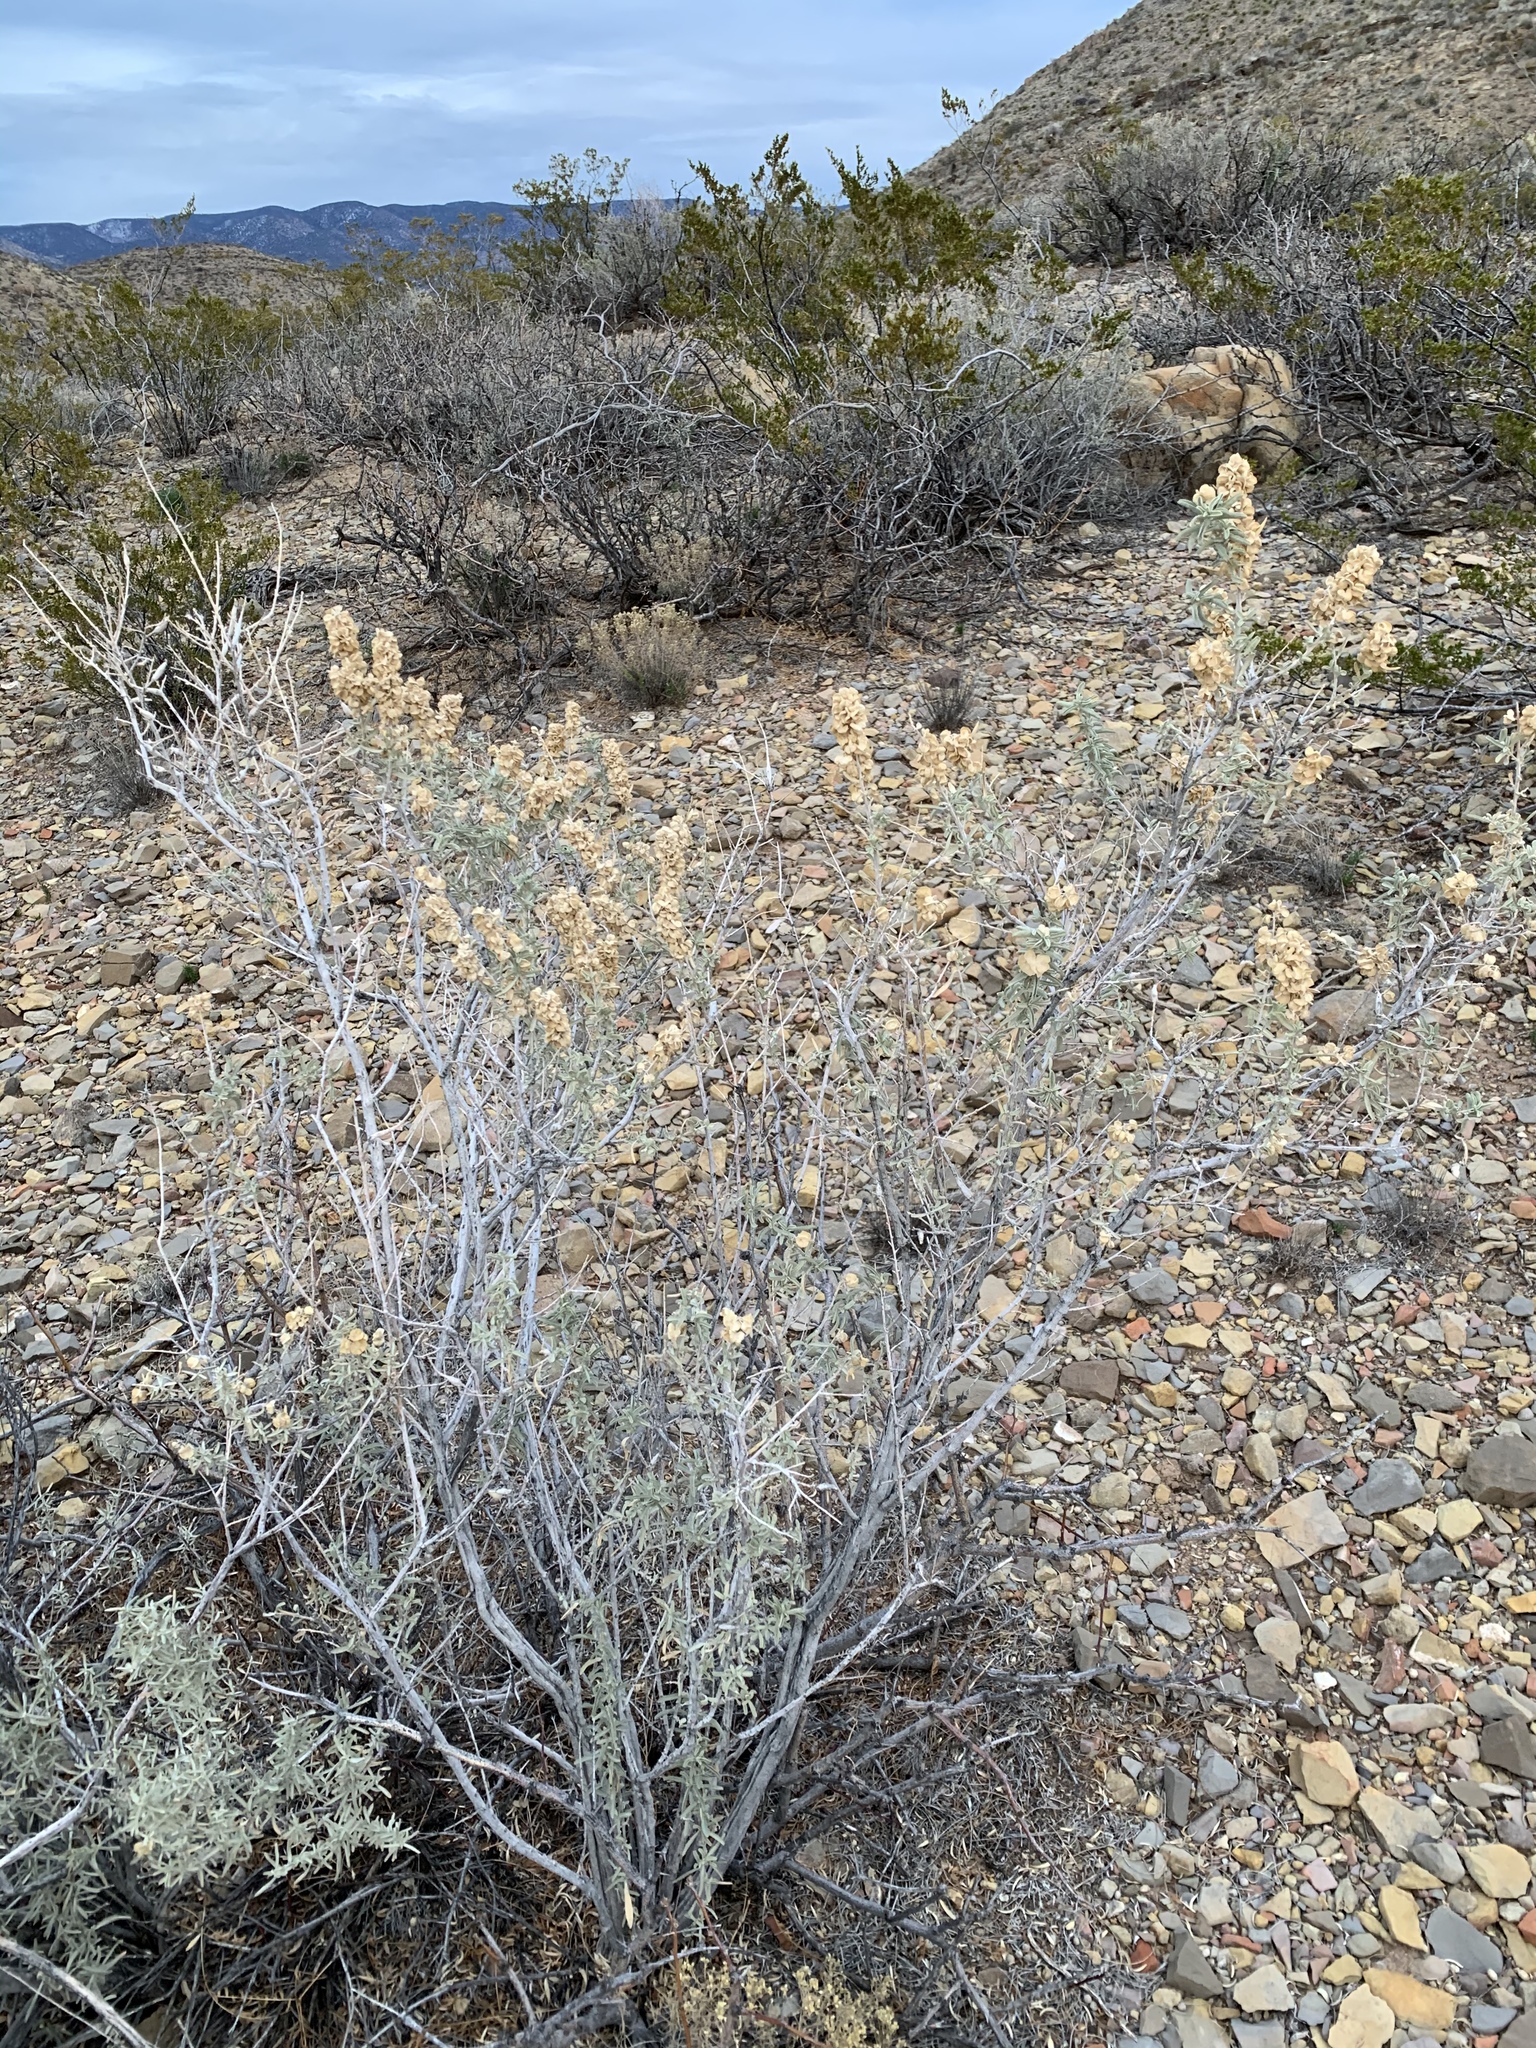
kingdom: Plantae
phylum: Tracheophyta
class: Magnoliopsida
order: Caryophyllales
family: Amaranthaceae
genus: Atriplex
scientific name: Atriplex canescens
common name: Four-wing saltbush
